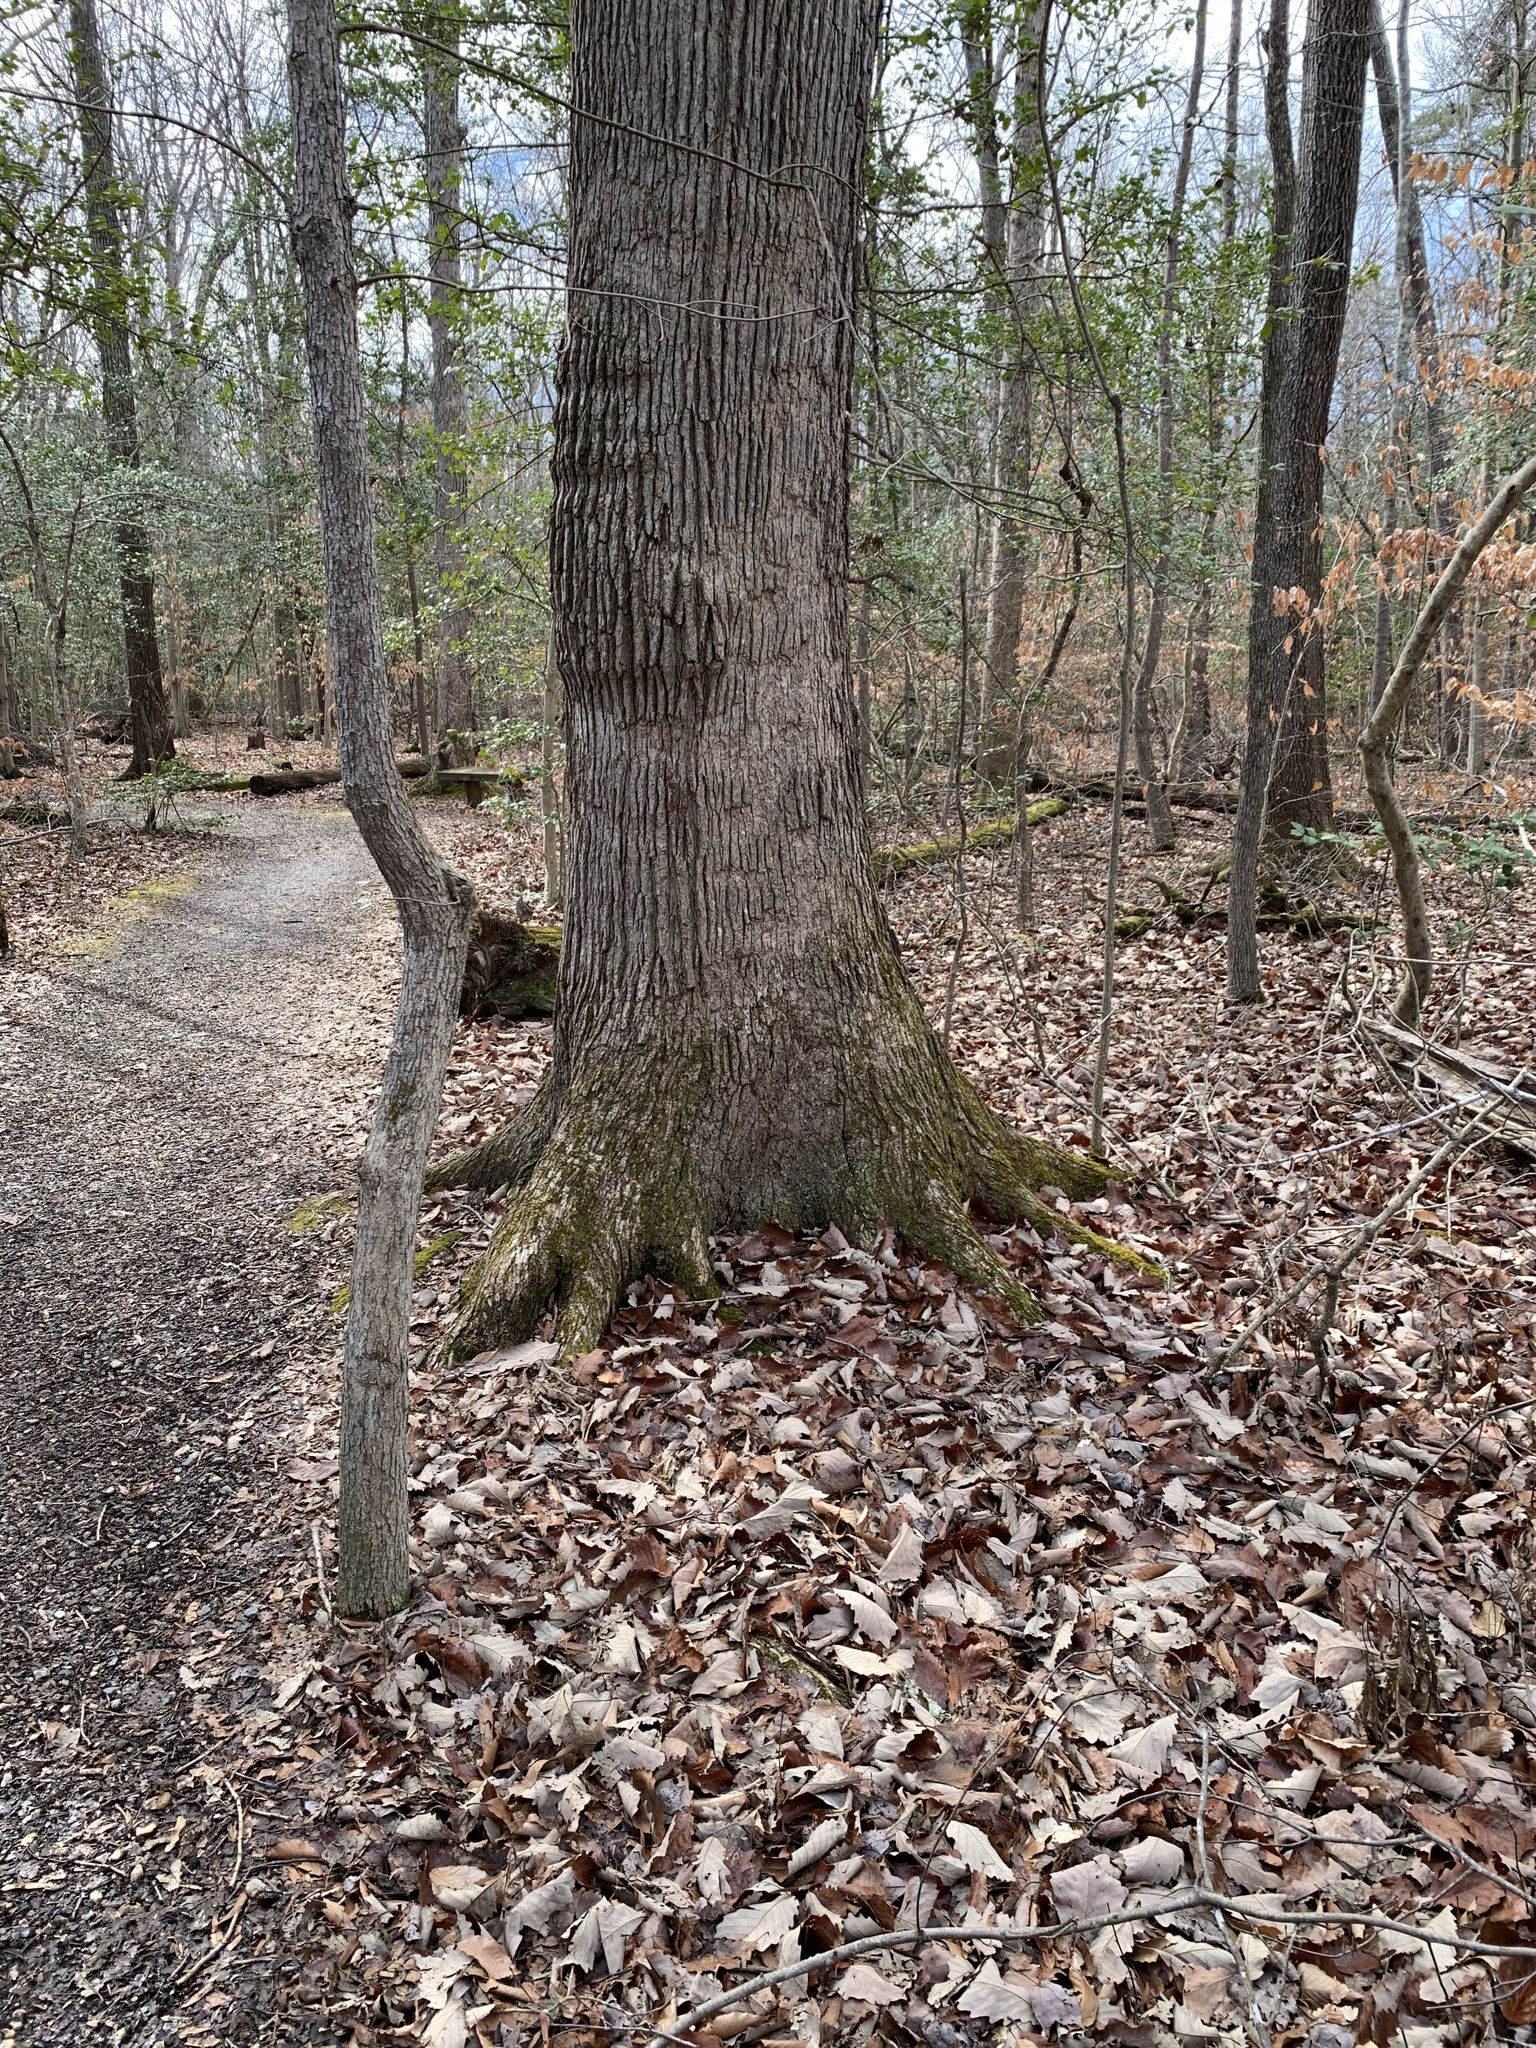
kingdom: Plantae
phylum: Tracheophyta
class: Magnoliopsida
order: Fagales
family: Fagaceae
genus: Quercus
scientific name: Quercus michauxii
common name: Swamp chestnut oak
